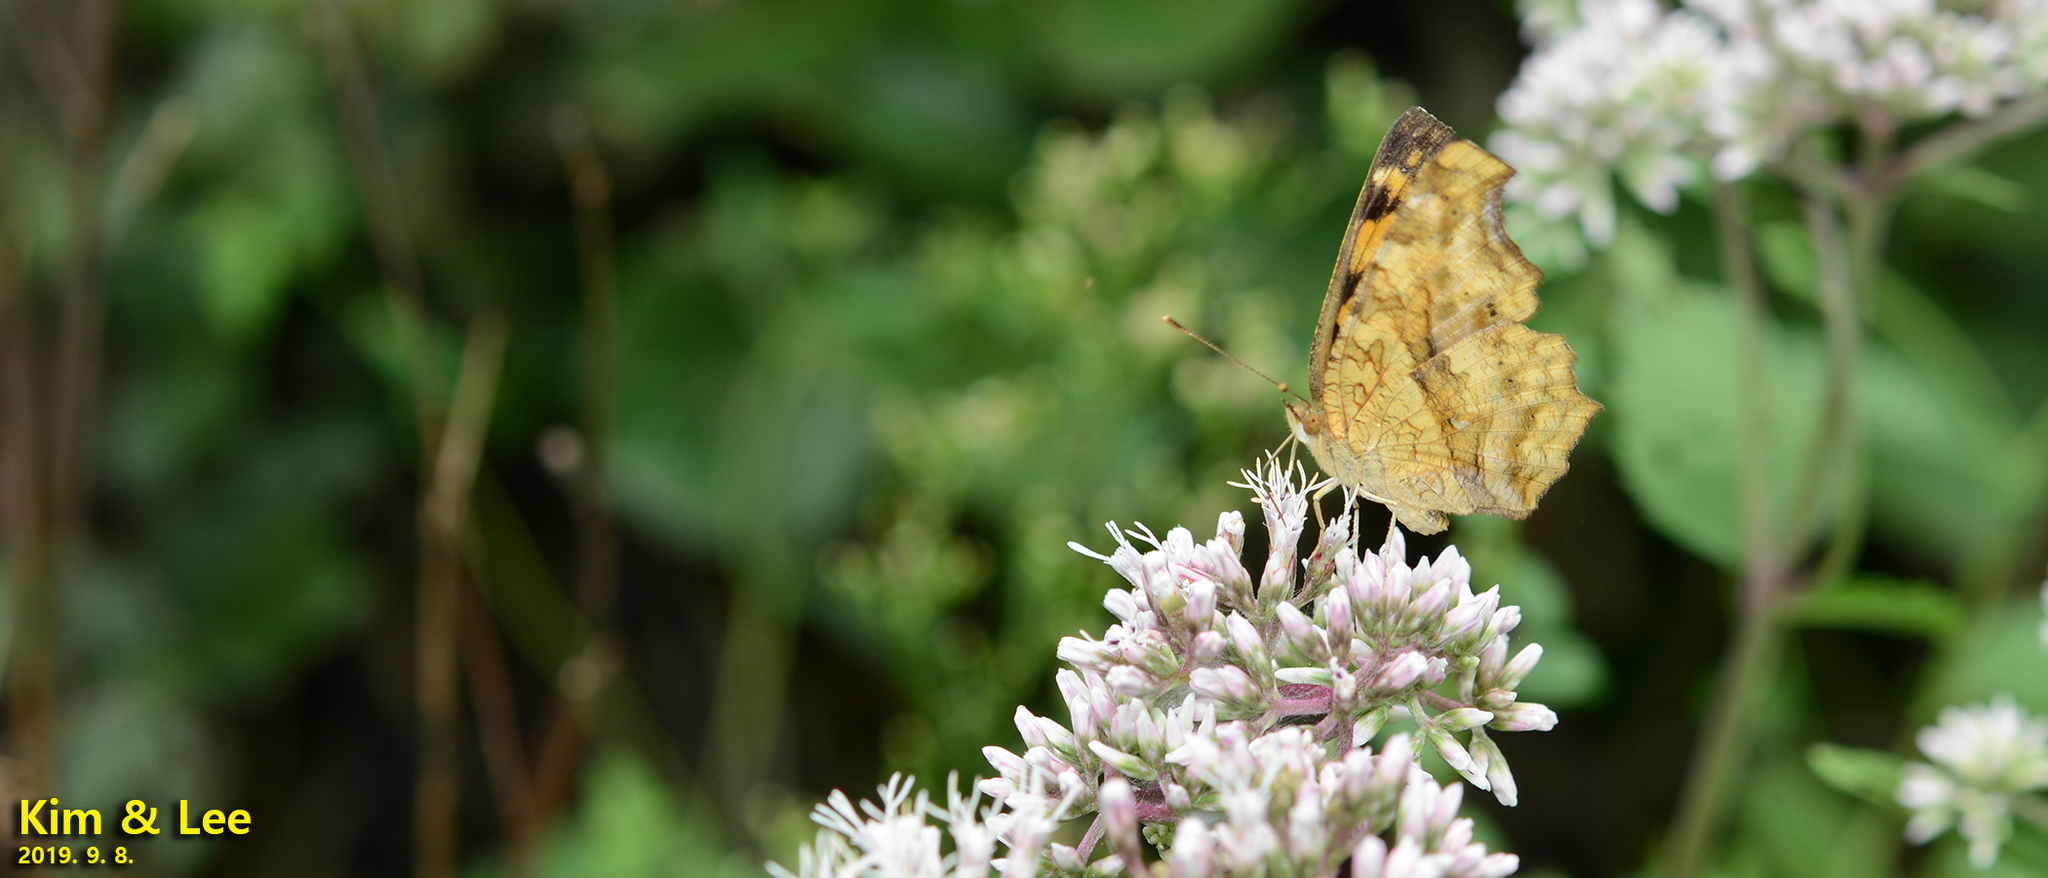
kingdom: Animalia
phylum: Arthropoda
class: Insecta
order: Lepidoptera
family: Nymphalidae
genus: Polygonia
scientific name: Polygonia c-aureum
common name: Asian comma
